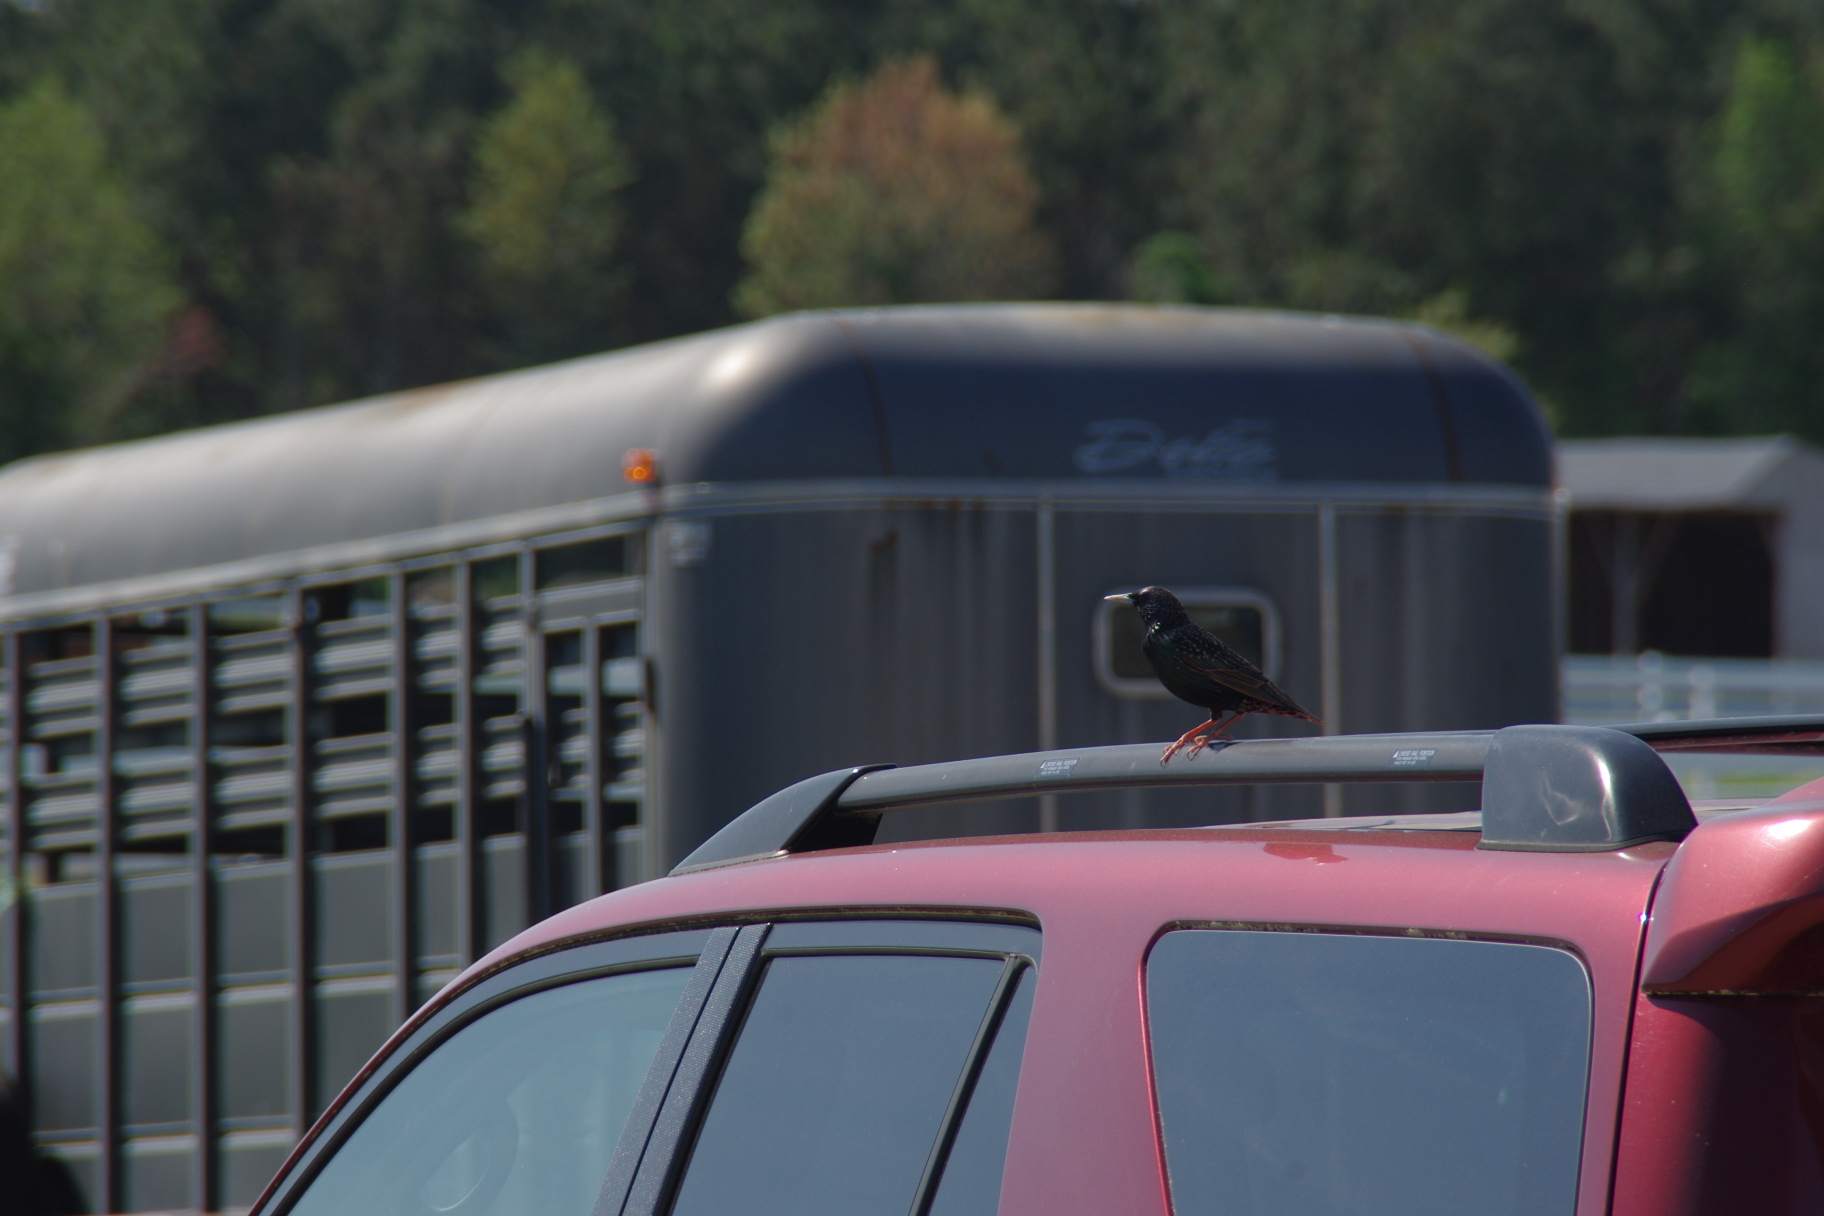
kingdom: Animalia
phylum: Chordata
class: Aves
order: Passeriformes
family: Sturnidae
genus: Sturnus
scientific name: Sturnus vulgaris
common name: Common starling
